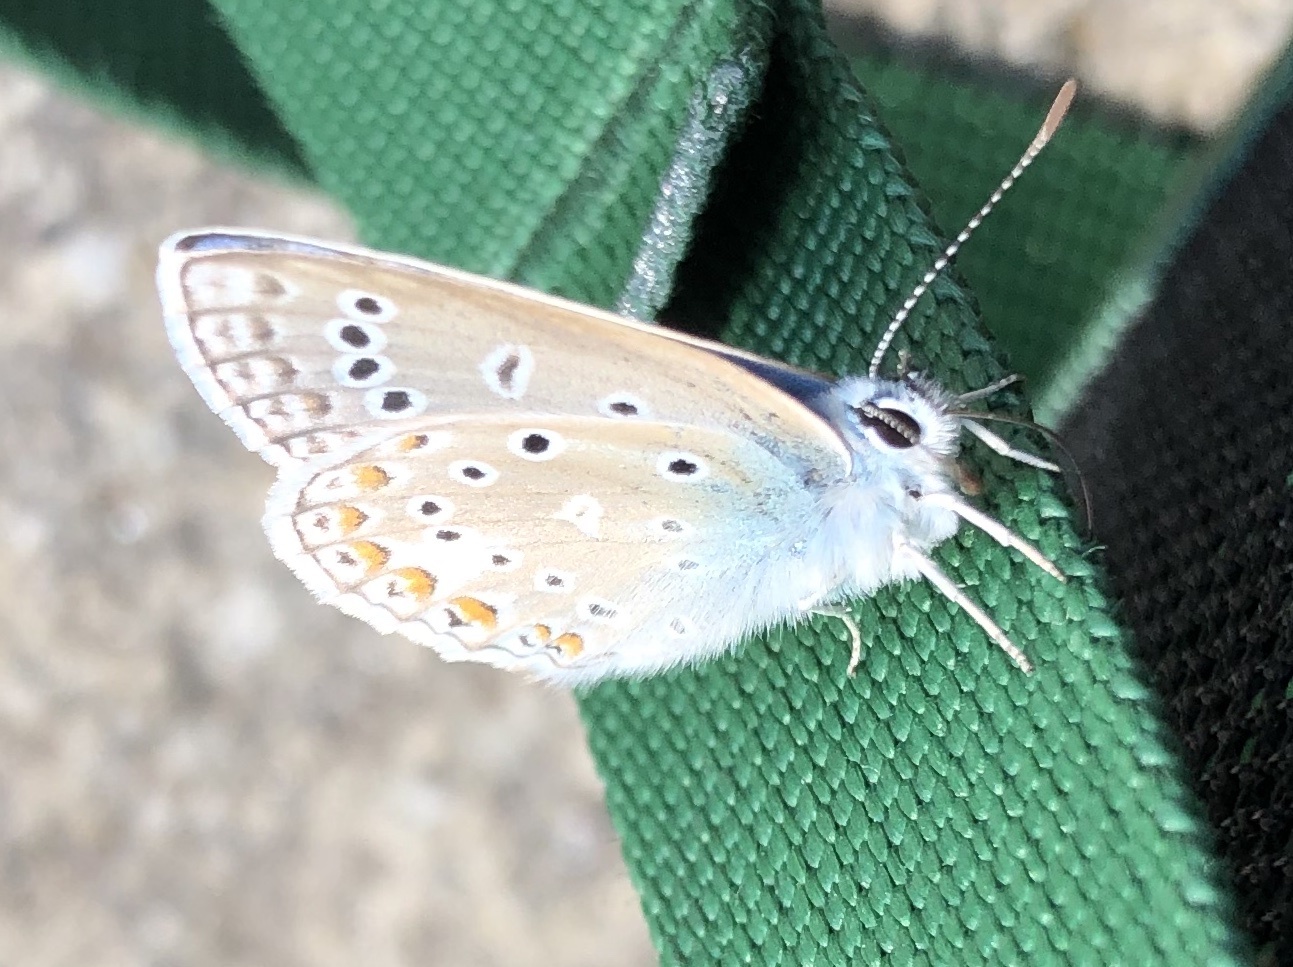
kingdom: Animalia
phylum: Arthropoda
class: Insecta
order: Lepidoptera
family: Lycaenidae
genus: Polyommatus
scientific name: Polyommatus icarus
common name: Common blue
